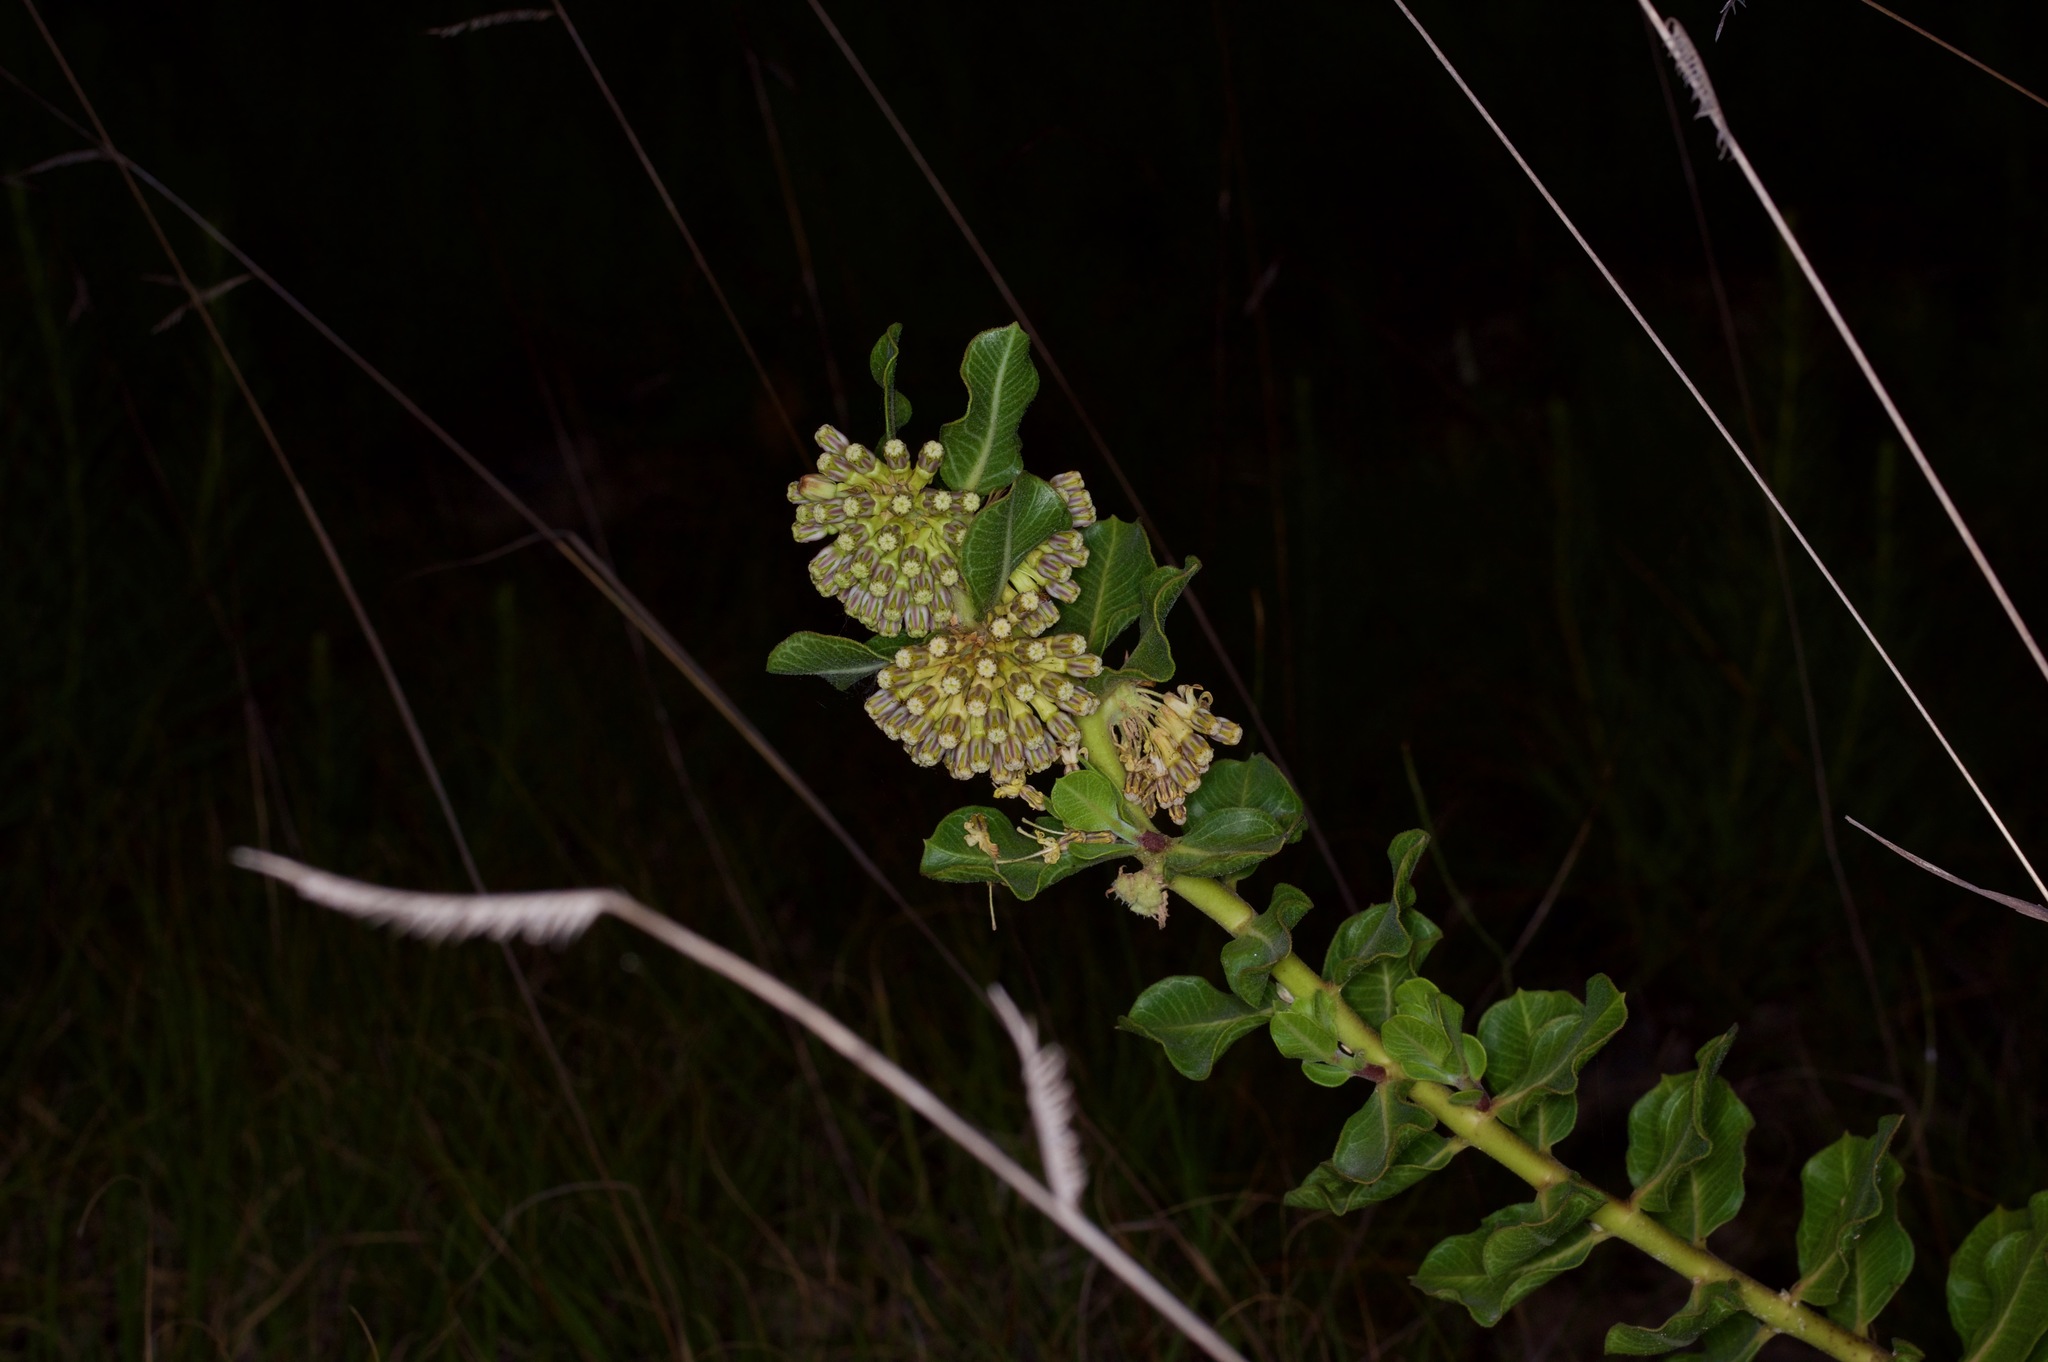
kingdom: Plantae
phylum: Tracheophyta
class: Magnoliopsida
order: Gentianales
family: Apocynaceae
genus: Asclepias
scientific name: Asclepias viridiflora
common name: Green comet milkweed
